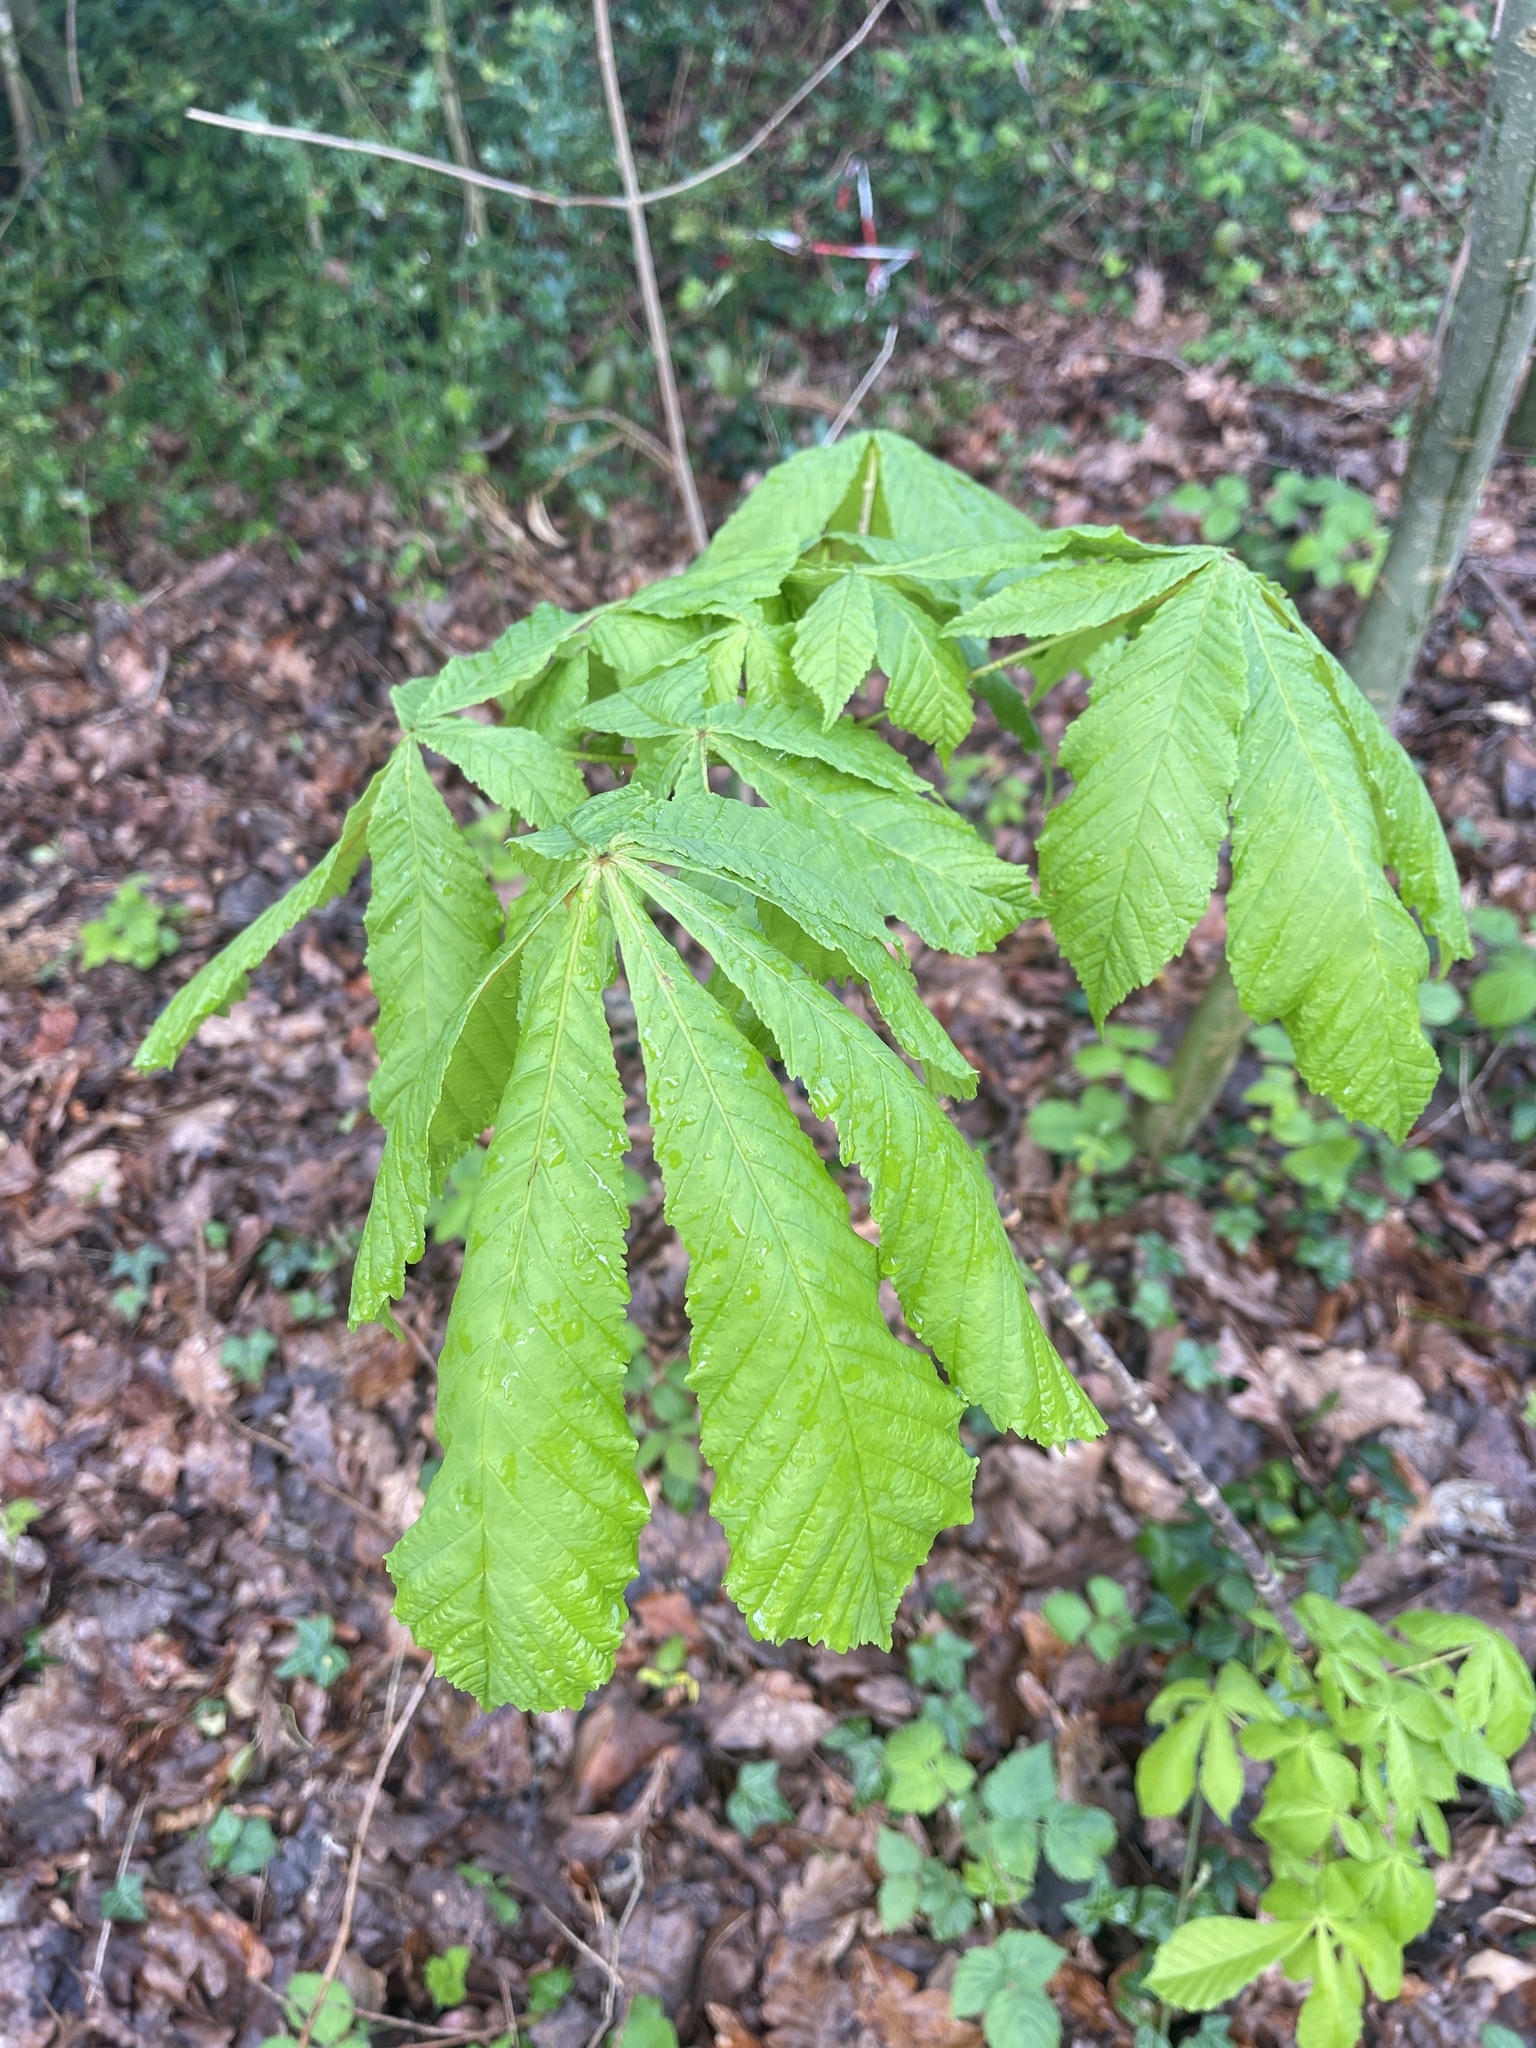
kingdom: Plantae
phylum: Tracheophyta
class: Magnoliopsida
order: Sapindales
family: Sapindaceae
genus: Aesculus
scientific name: Aesculus hippocastanum
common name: Horse-chestnut
